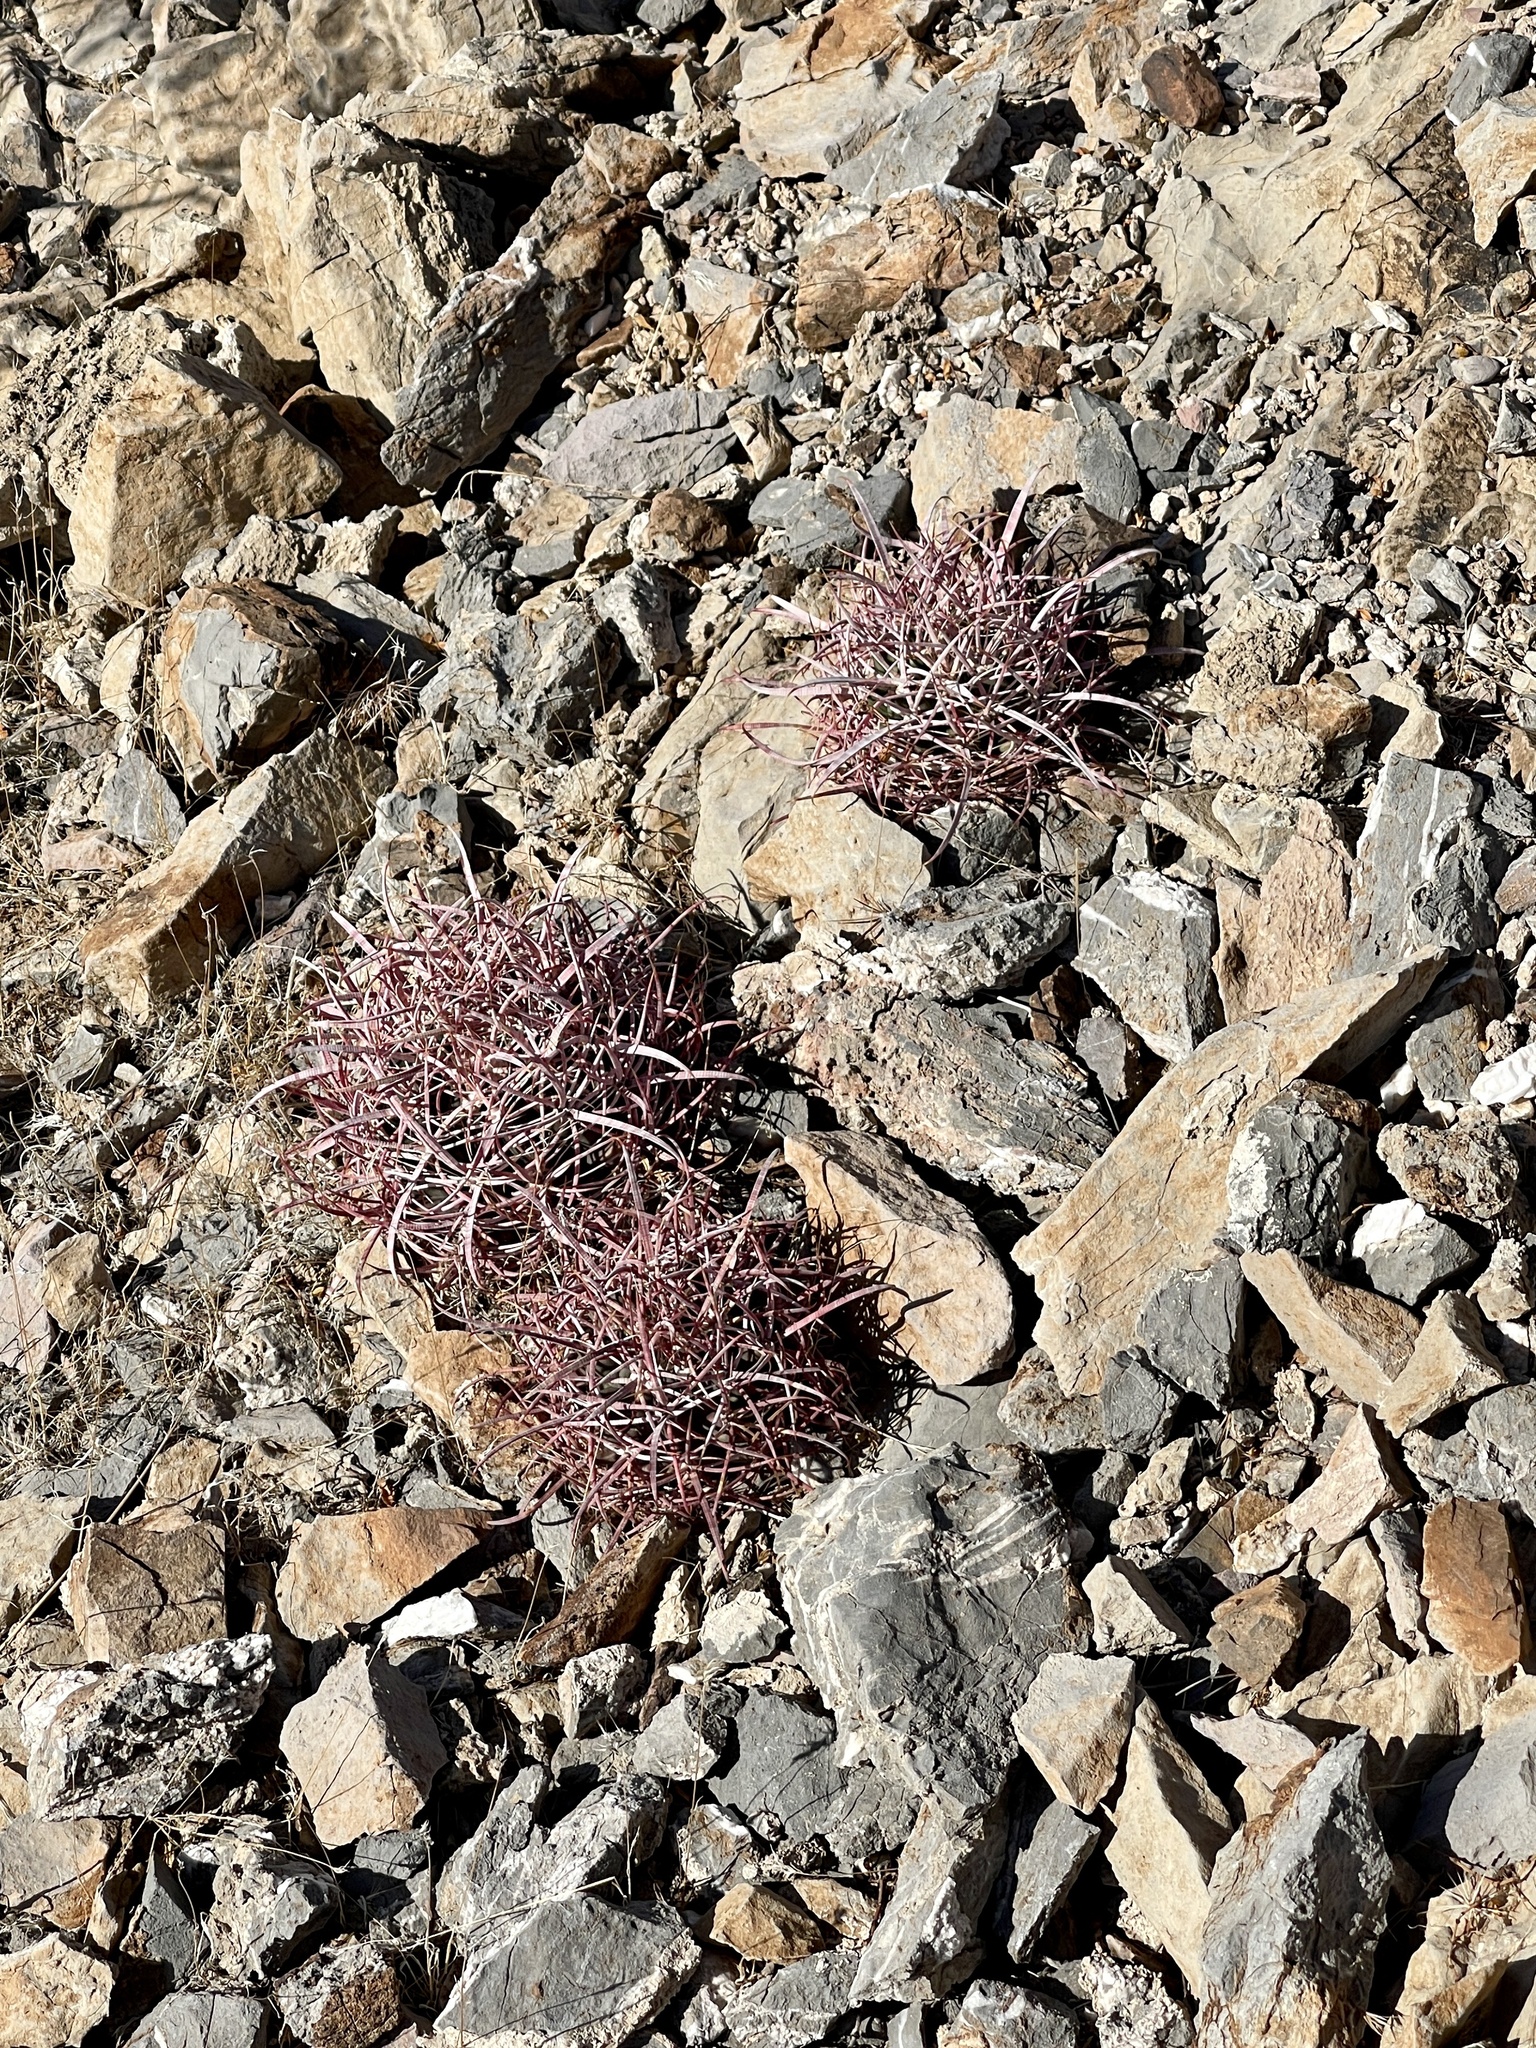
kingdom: Plantae
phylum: Tracheophyta
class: Magnoliopsida
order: Caryophyllales
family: Cactaceae
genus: Ferocactus
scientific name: Ferocactus cylindraceus
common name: California barrel cactus
